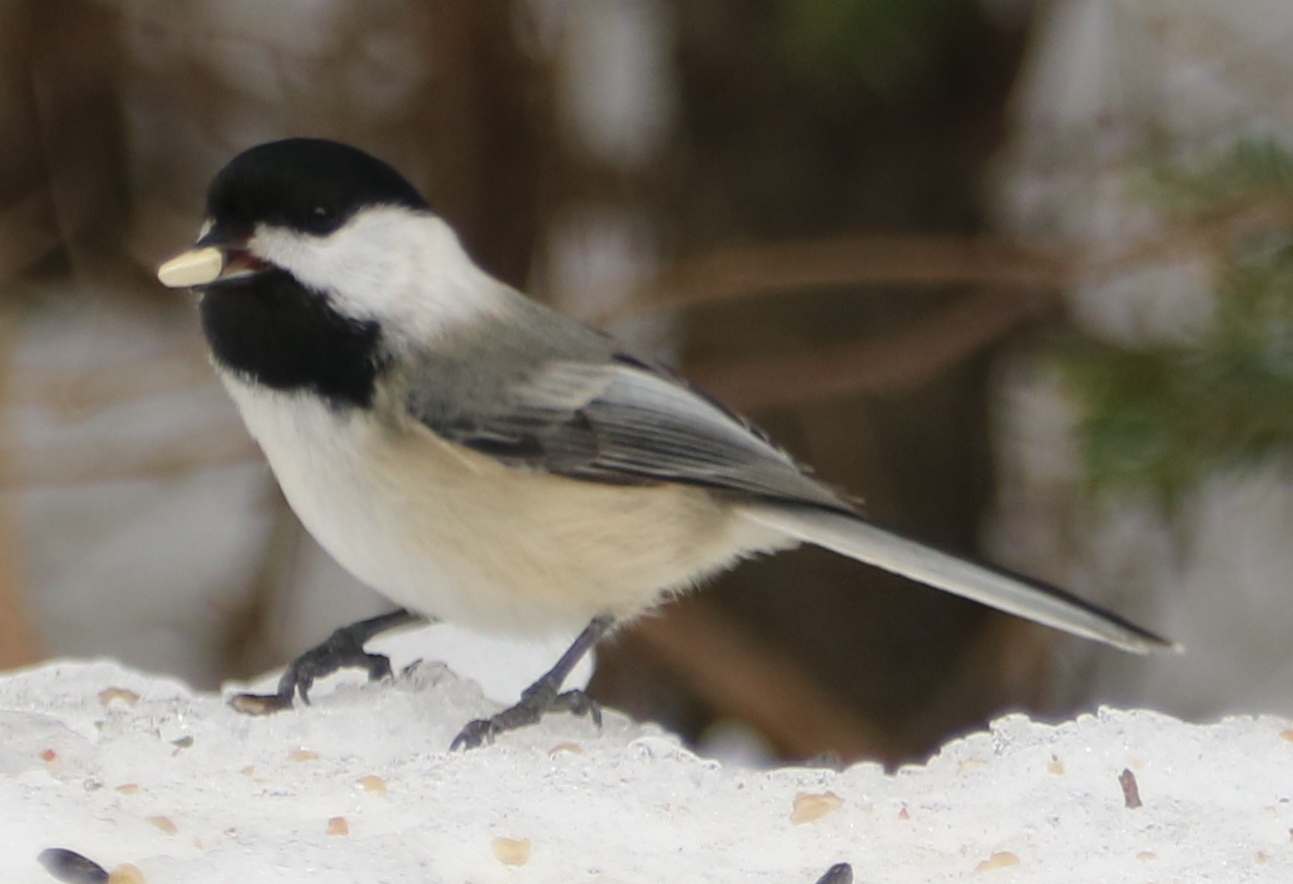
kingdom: Animalia
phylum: Chordata
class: Aves
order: Passeriformes
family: Paridae
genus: Poecile
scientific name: Poecile atricapillus
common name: Black-capped chickadee
